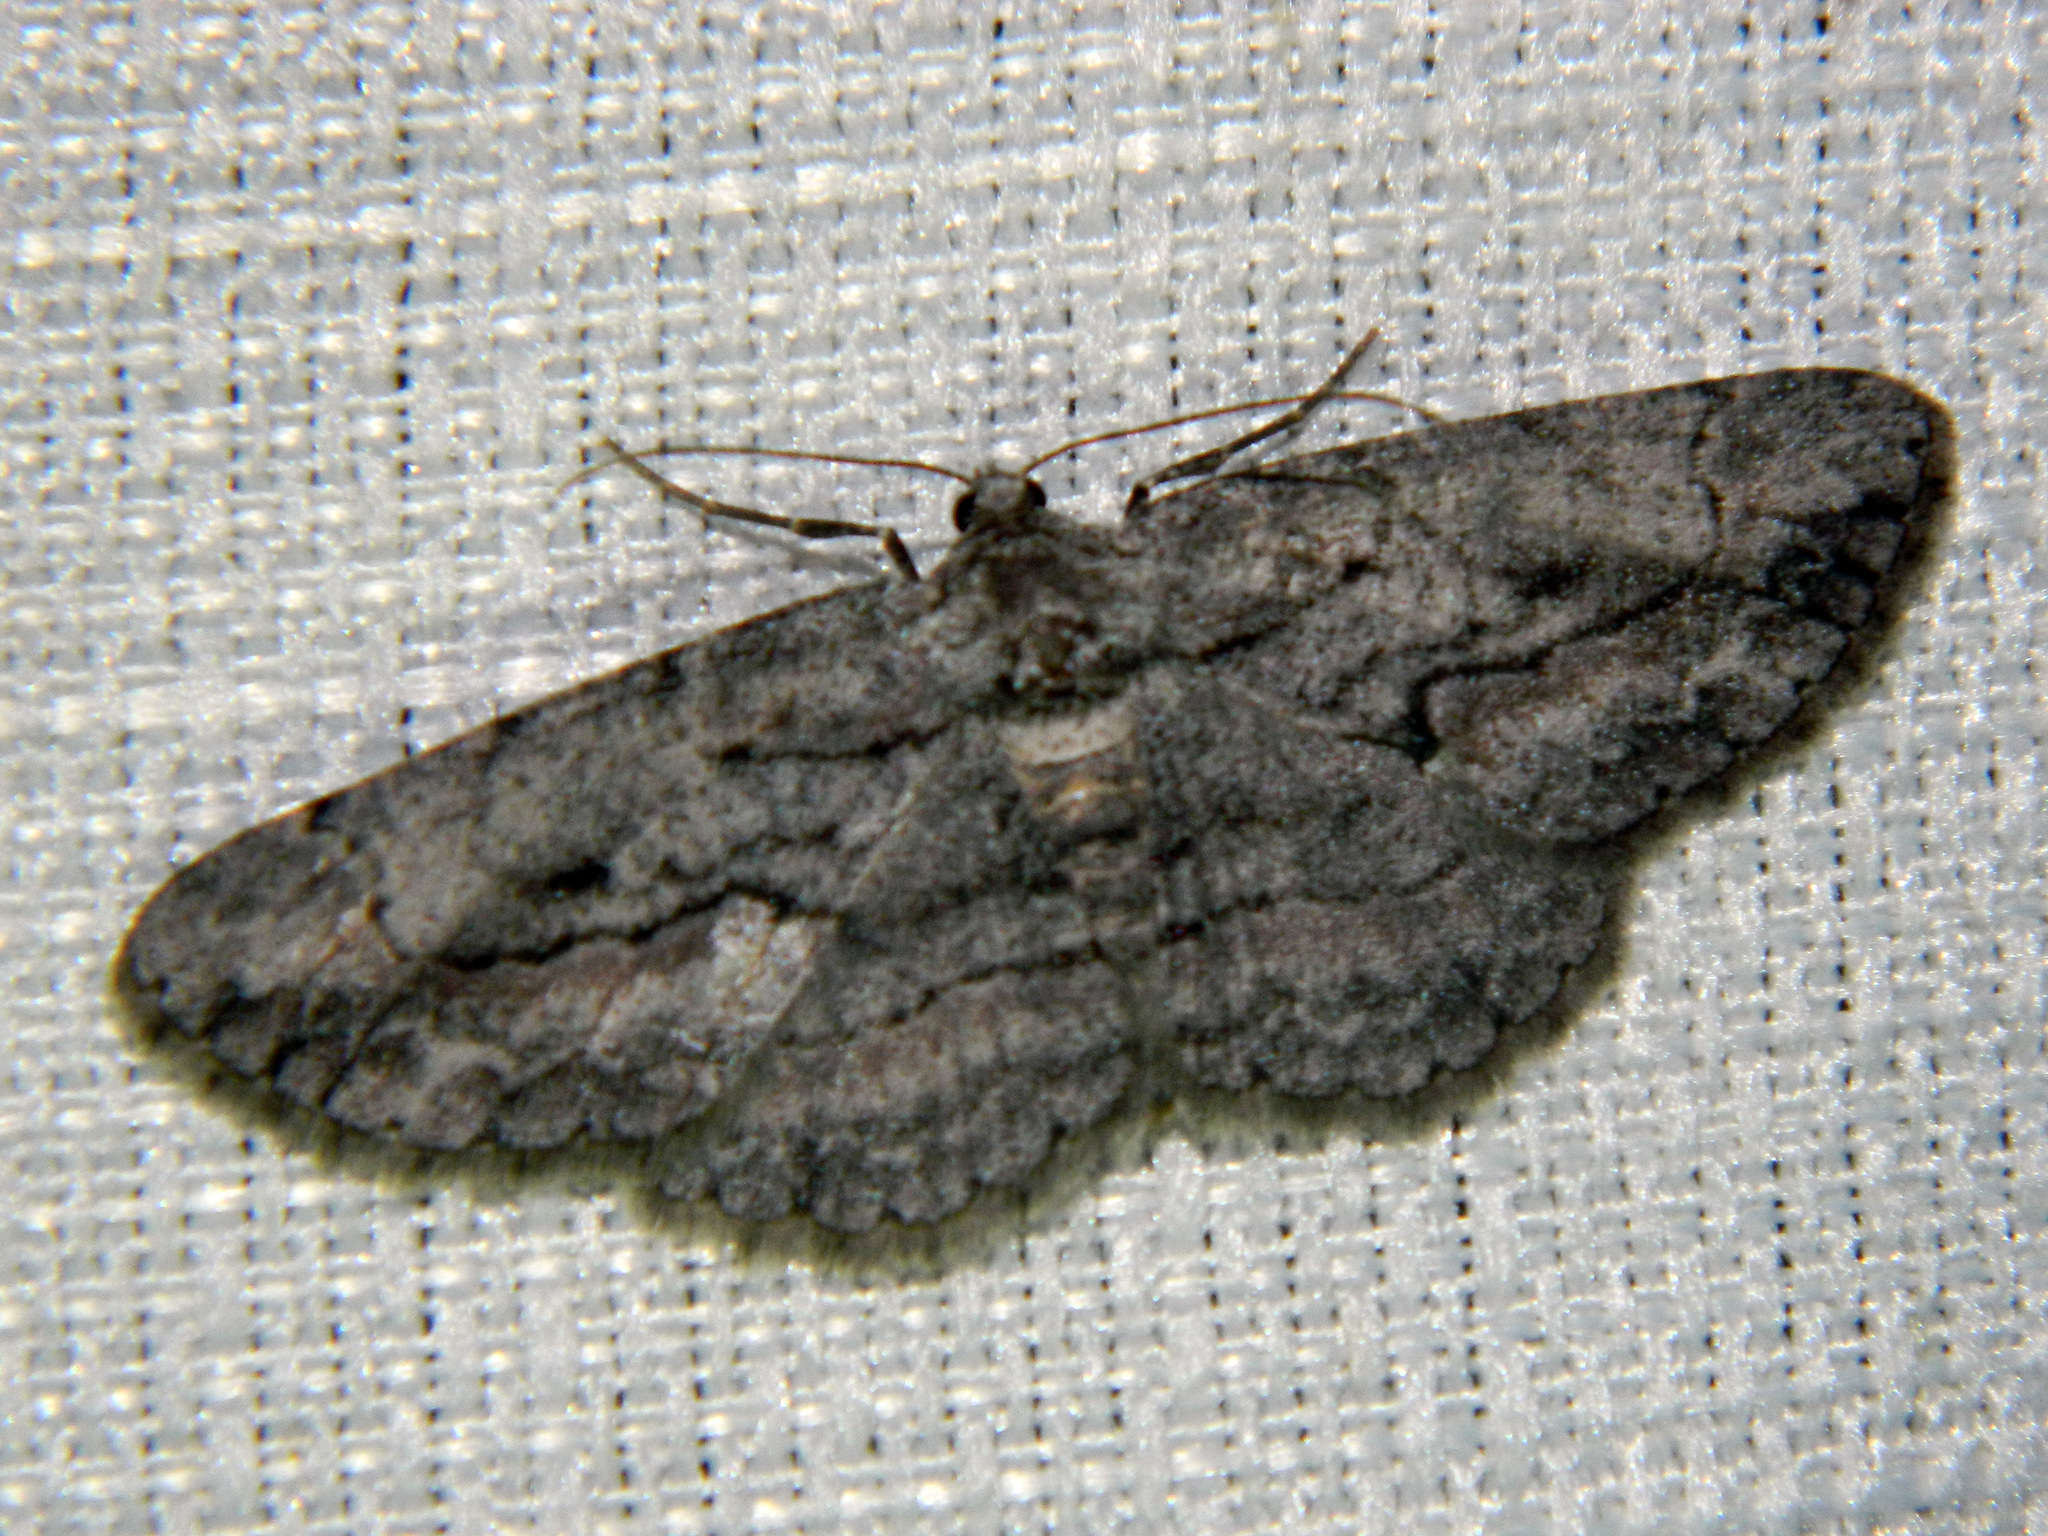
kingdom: Animalia
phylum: Arthropoda
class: Insecta
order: Lepidoptera
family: Geometridae
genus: Anavitrinella
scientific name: Anavitrinella pampinaria
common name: Common gray
